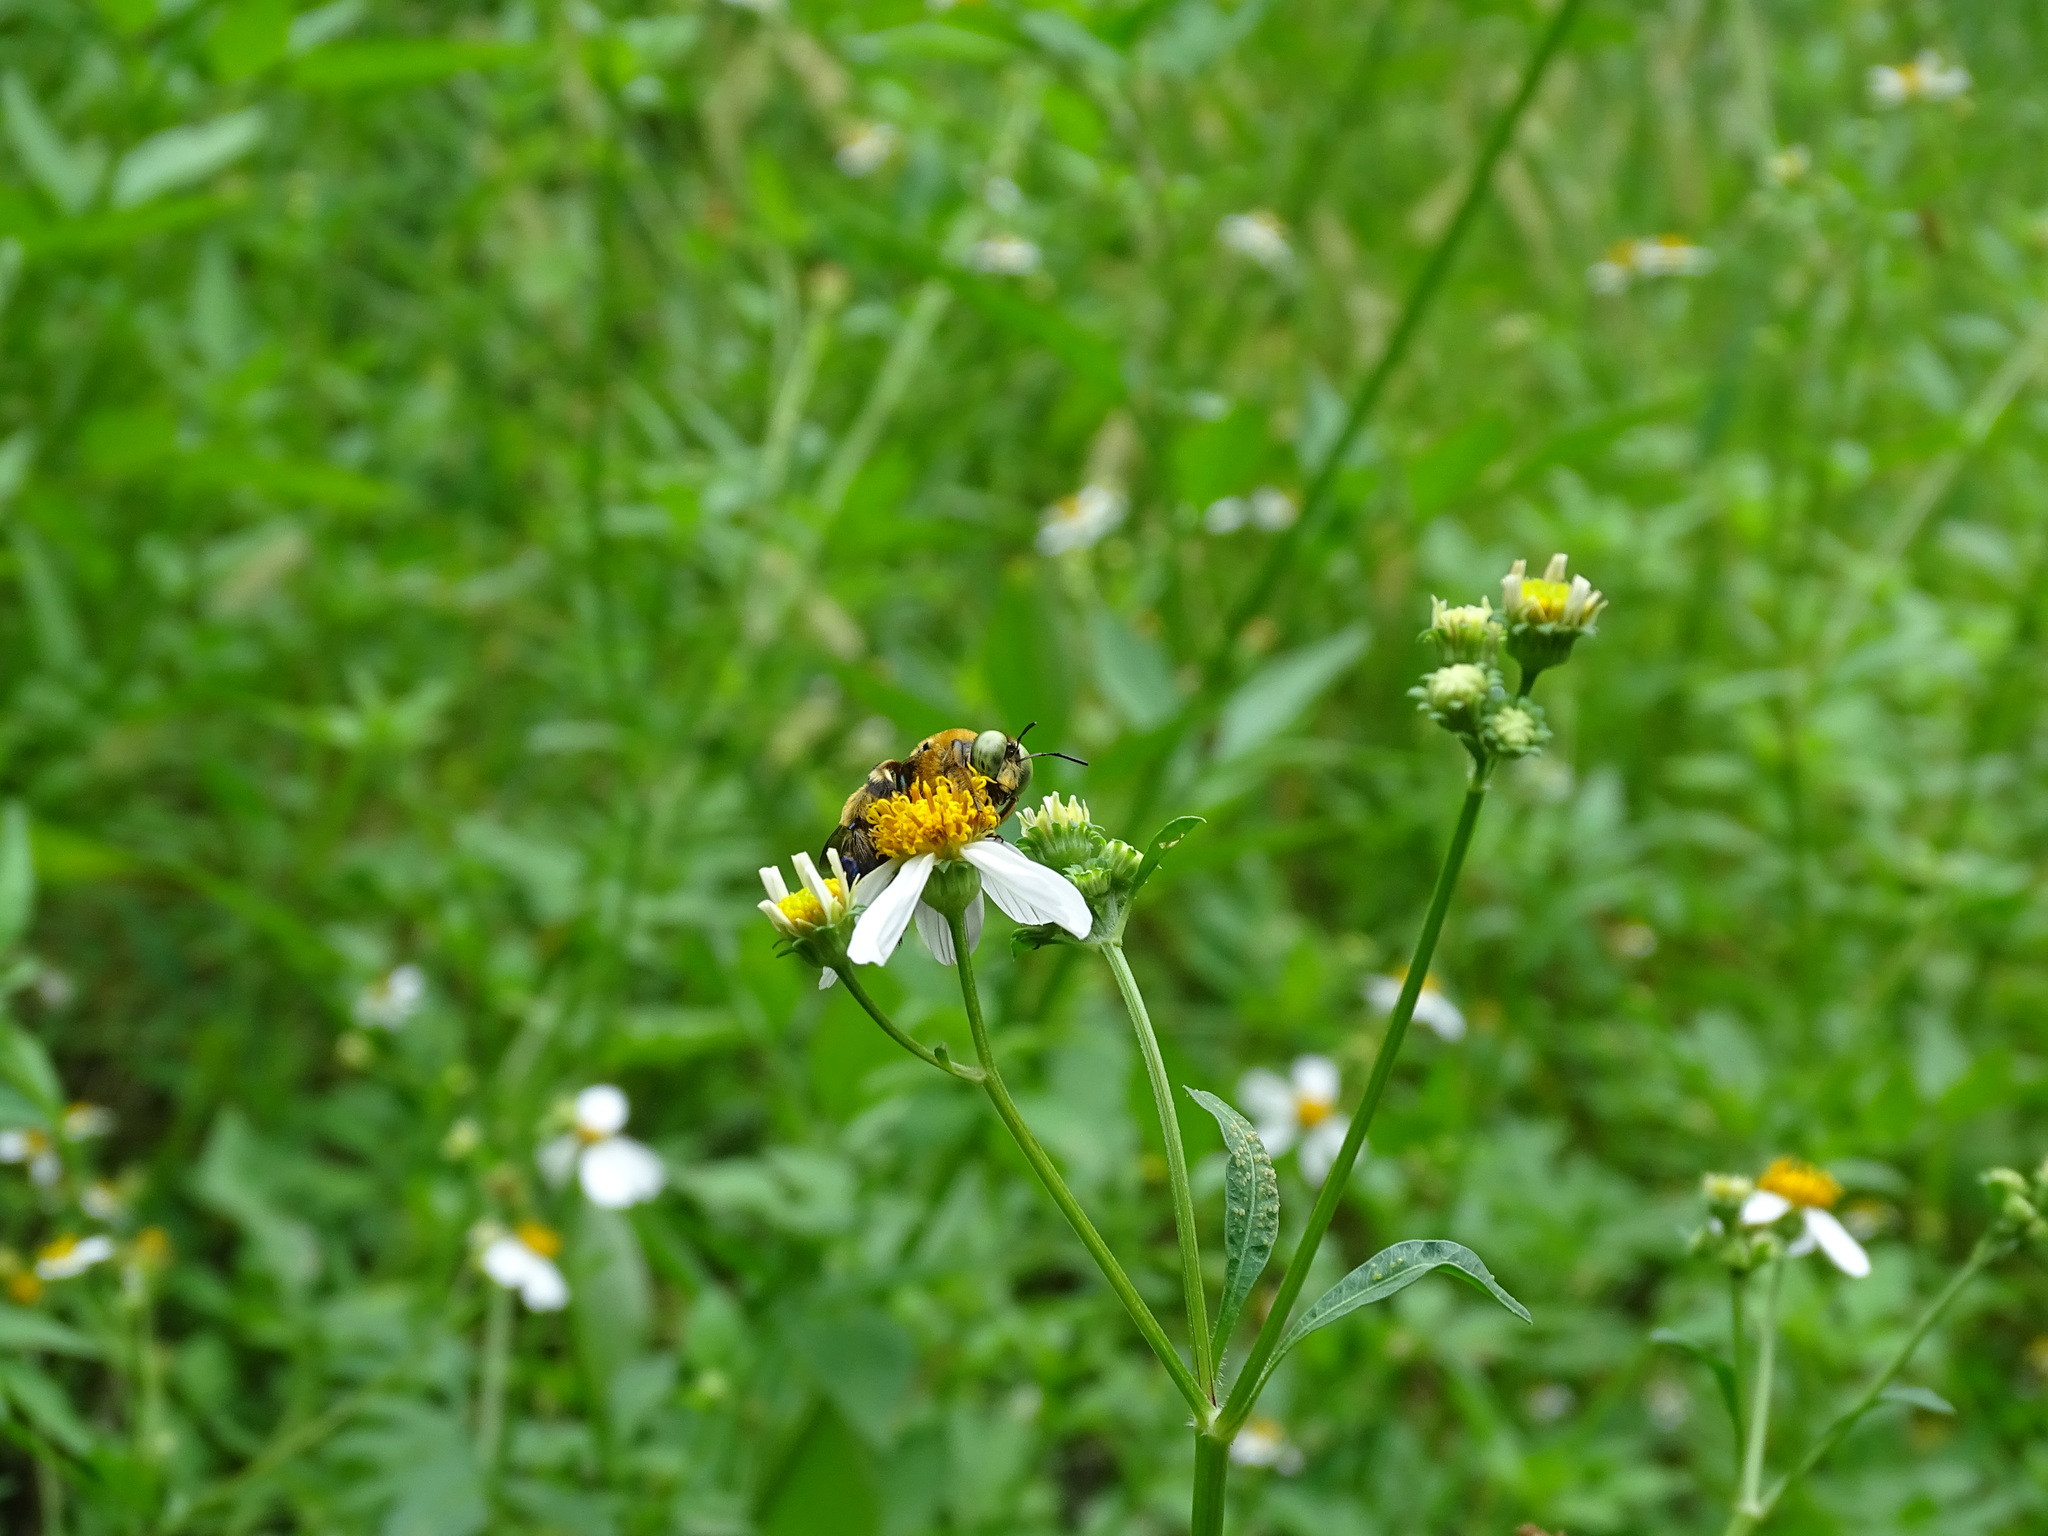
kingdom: Animalia
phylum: Arthropoda
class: Insecta
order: Hymenoptera
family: Apidae
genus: Xylocopa
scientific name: Xylocopa micans
